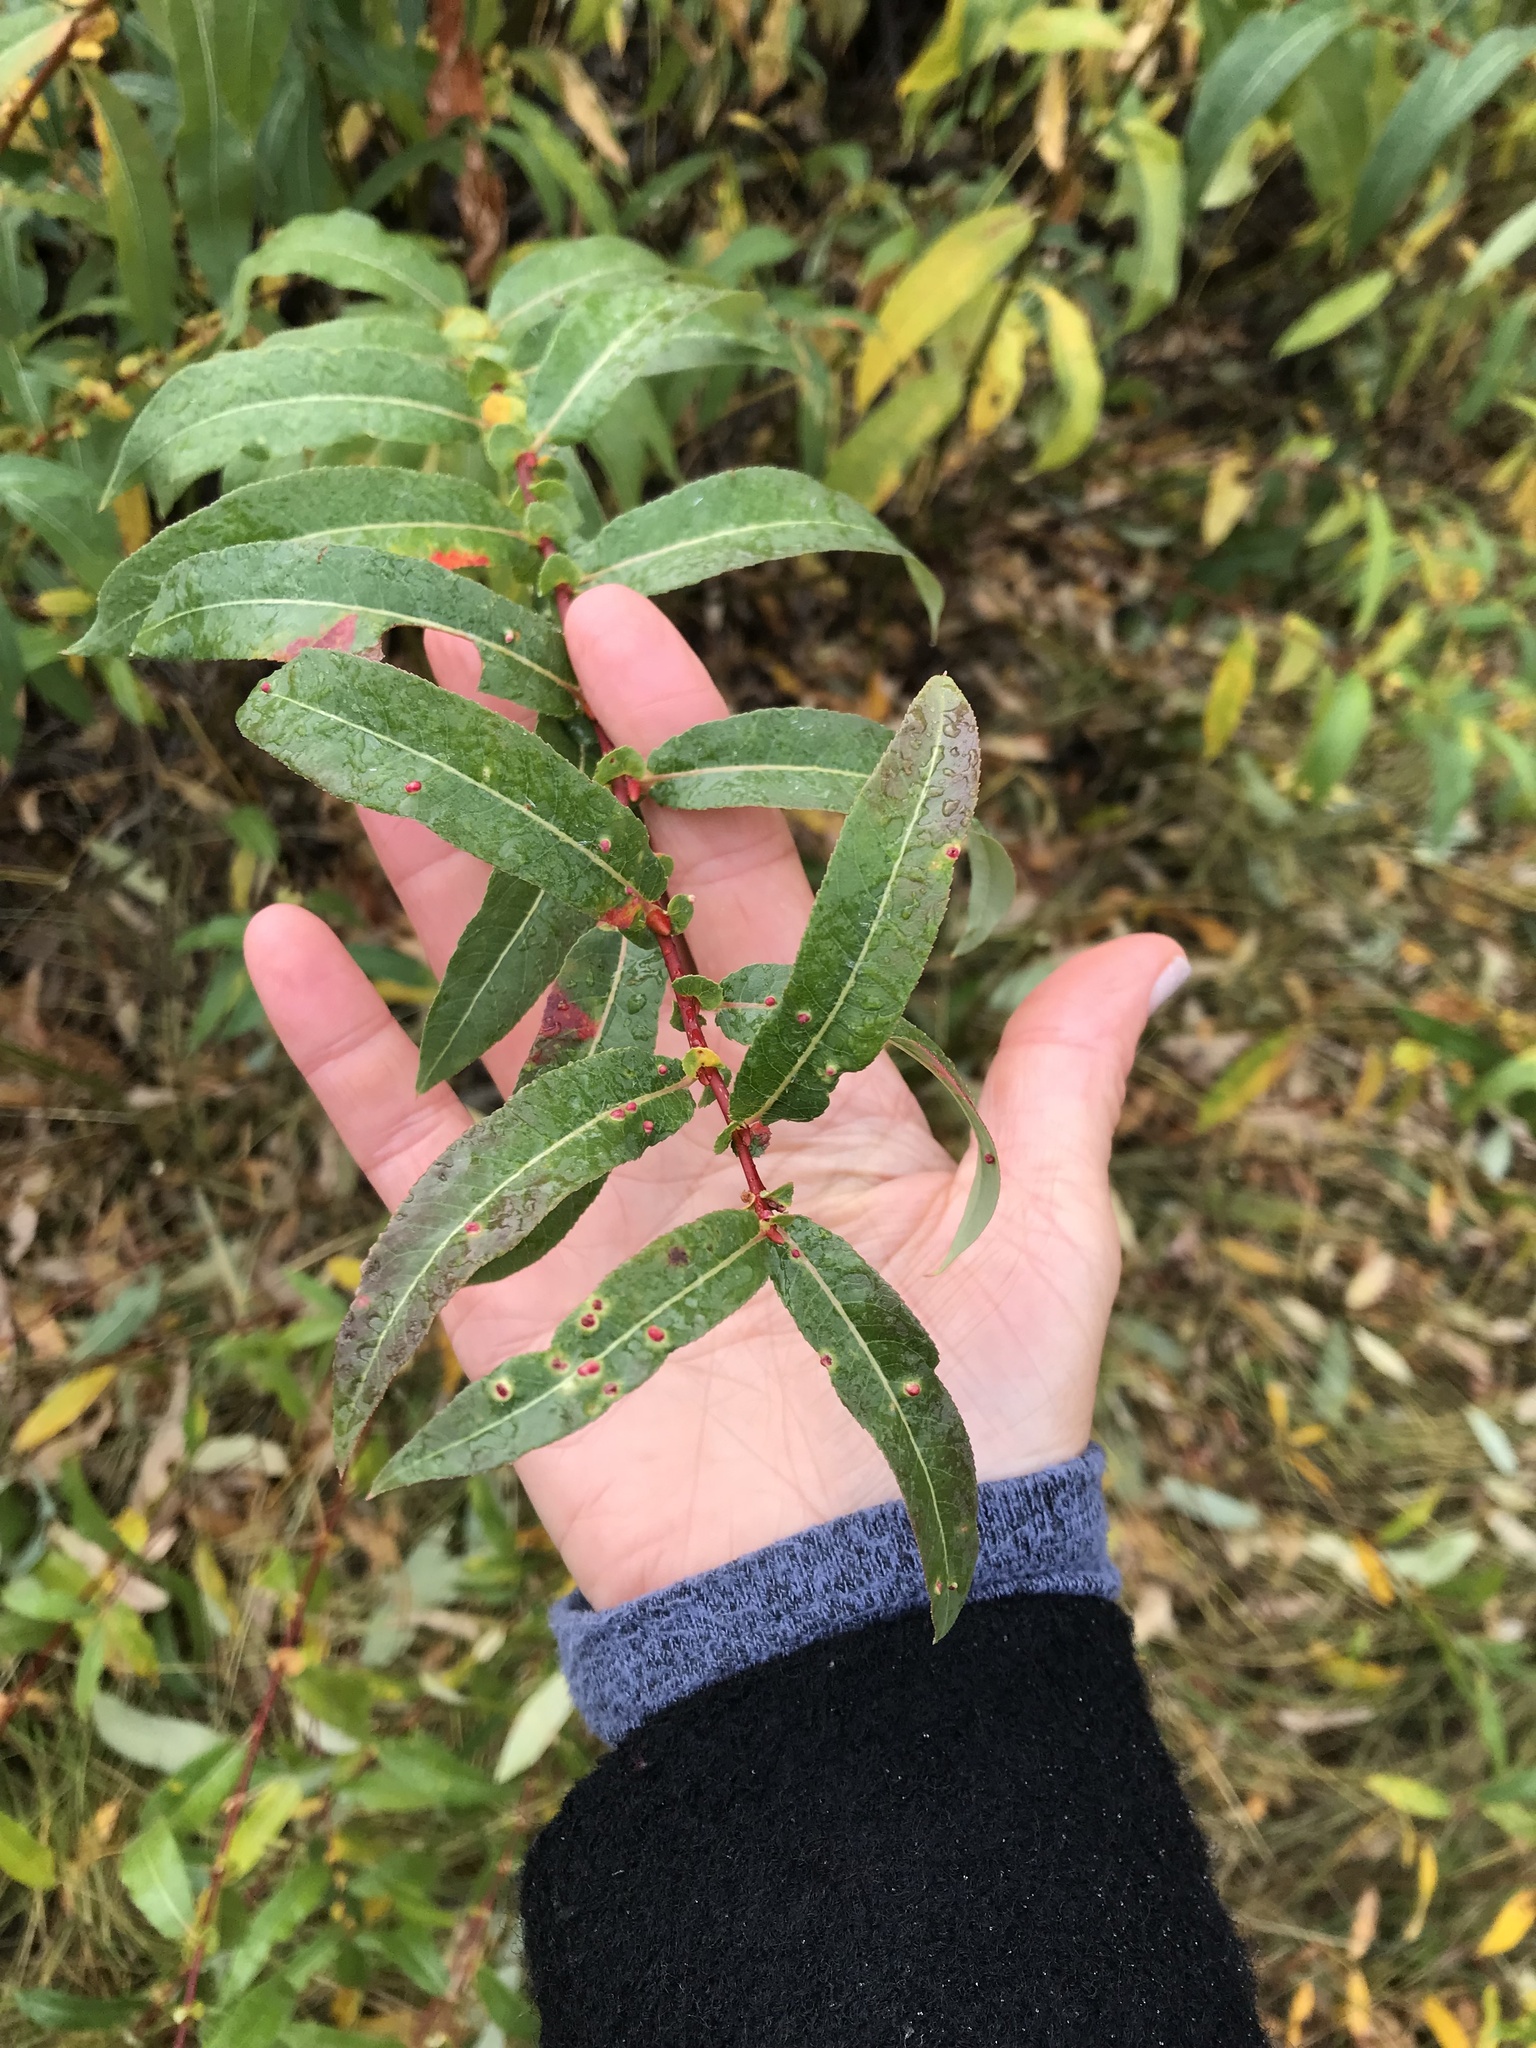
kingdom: Plantae
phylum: Tracheophyta
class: Magnoliopsida
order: Malpighiales
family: Salicaceae
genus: Salix
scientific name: Salix lucida
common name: Shining willow
